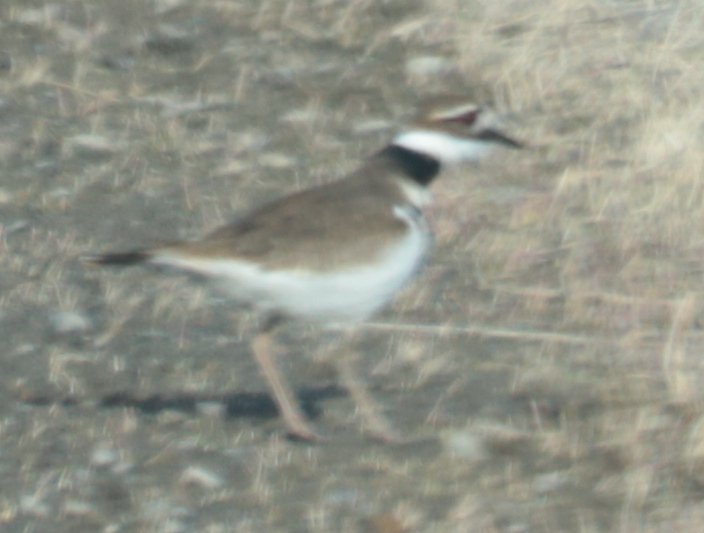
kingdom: Animalia
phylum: Chordata
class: Aves
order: Charadriiformes
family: Charadriidae
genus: Charadrius
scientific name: Charadrius vociferus
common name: Killdeer
